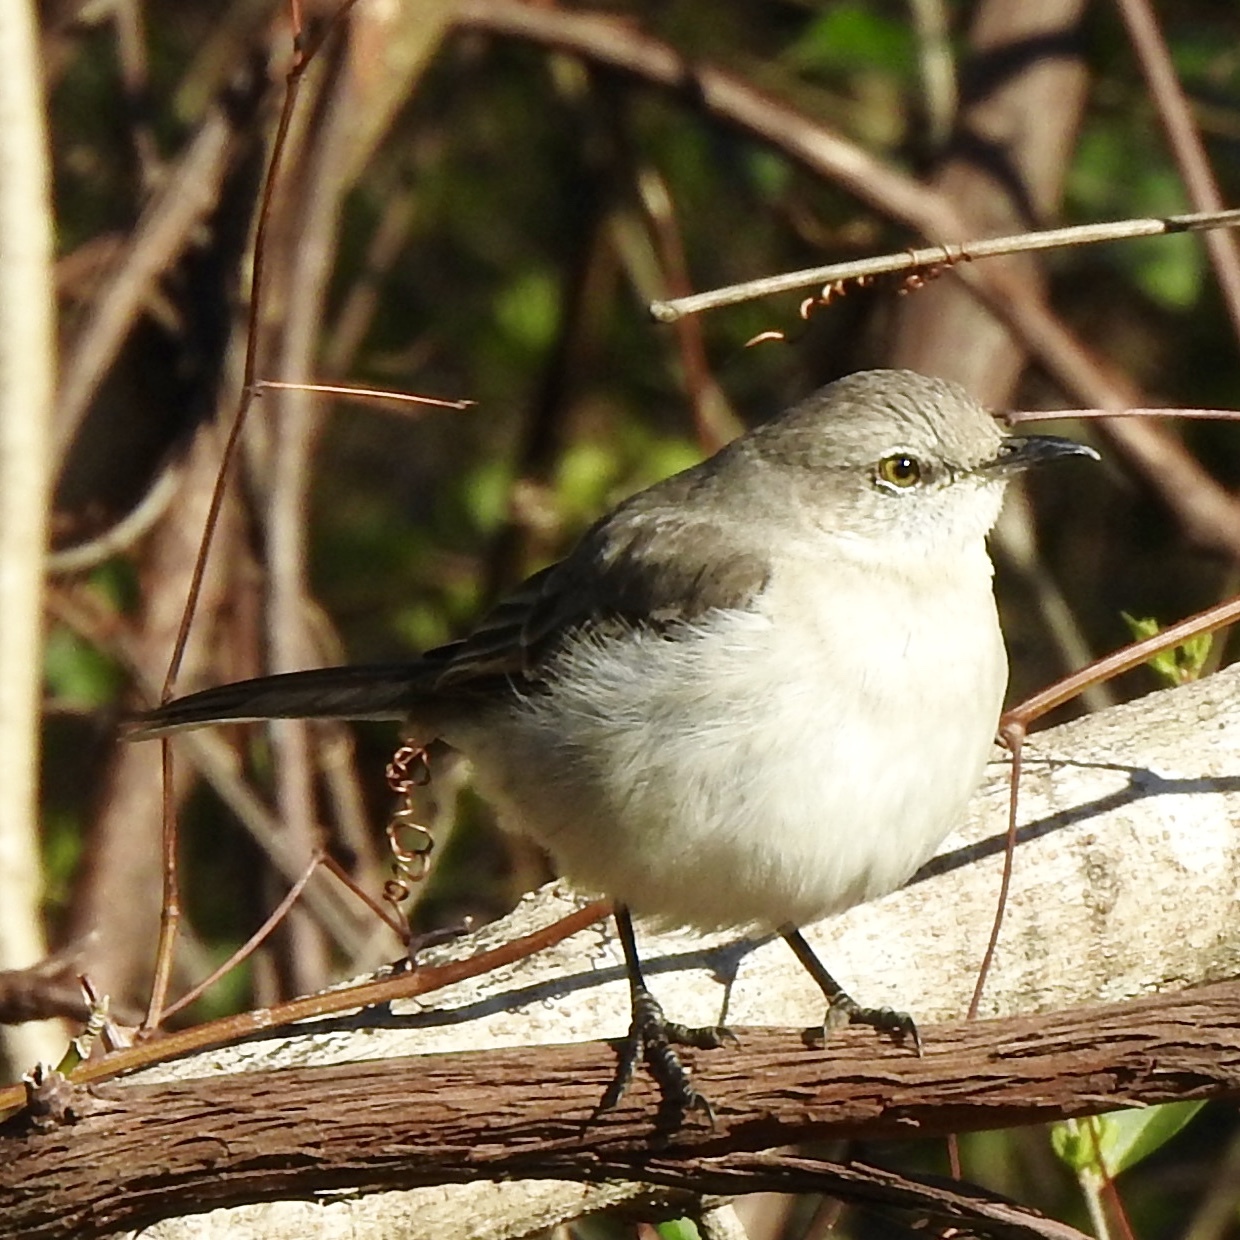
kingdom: Animalia
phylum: Chordata
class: Aves
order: Passeriformes
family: Mimidae
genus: Mimus
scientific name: Mimus polyglottos
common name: Northern mockingbird
